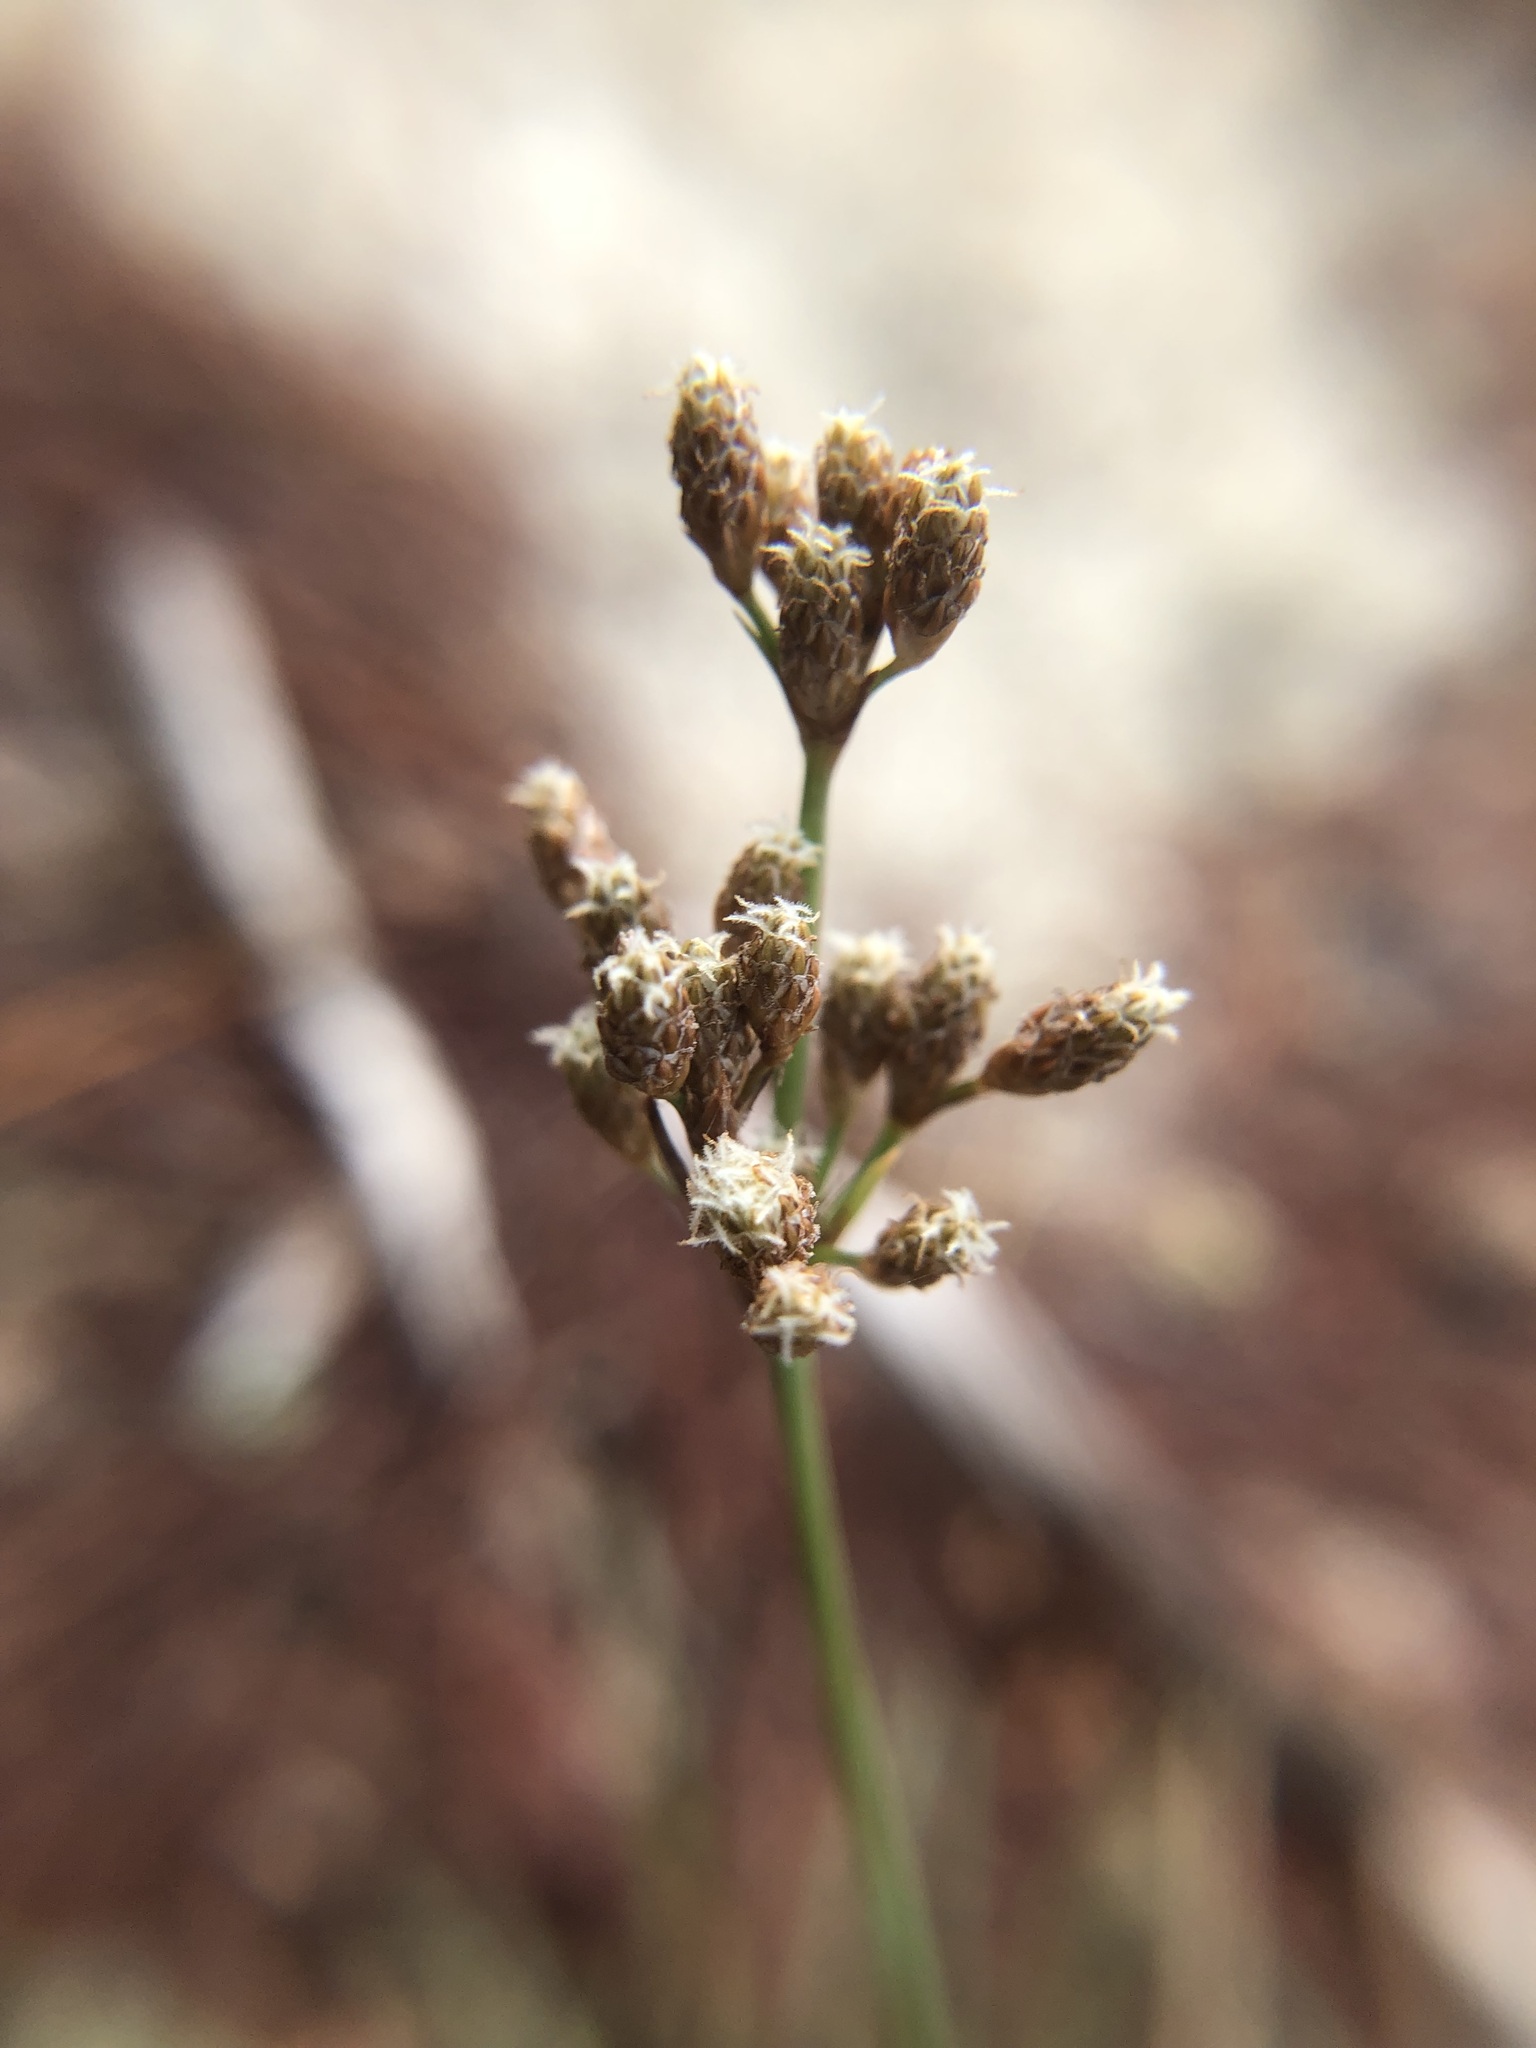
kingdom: Plantae
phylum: Tracheophyta
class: Liliopsida
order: Poales
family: Cyperaceae
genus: Fimbristylis
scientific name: Fimbristylis cymosa
